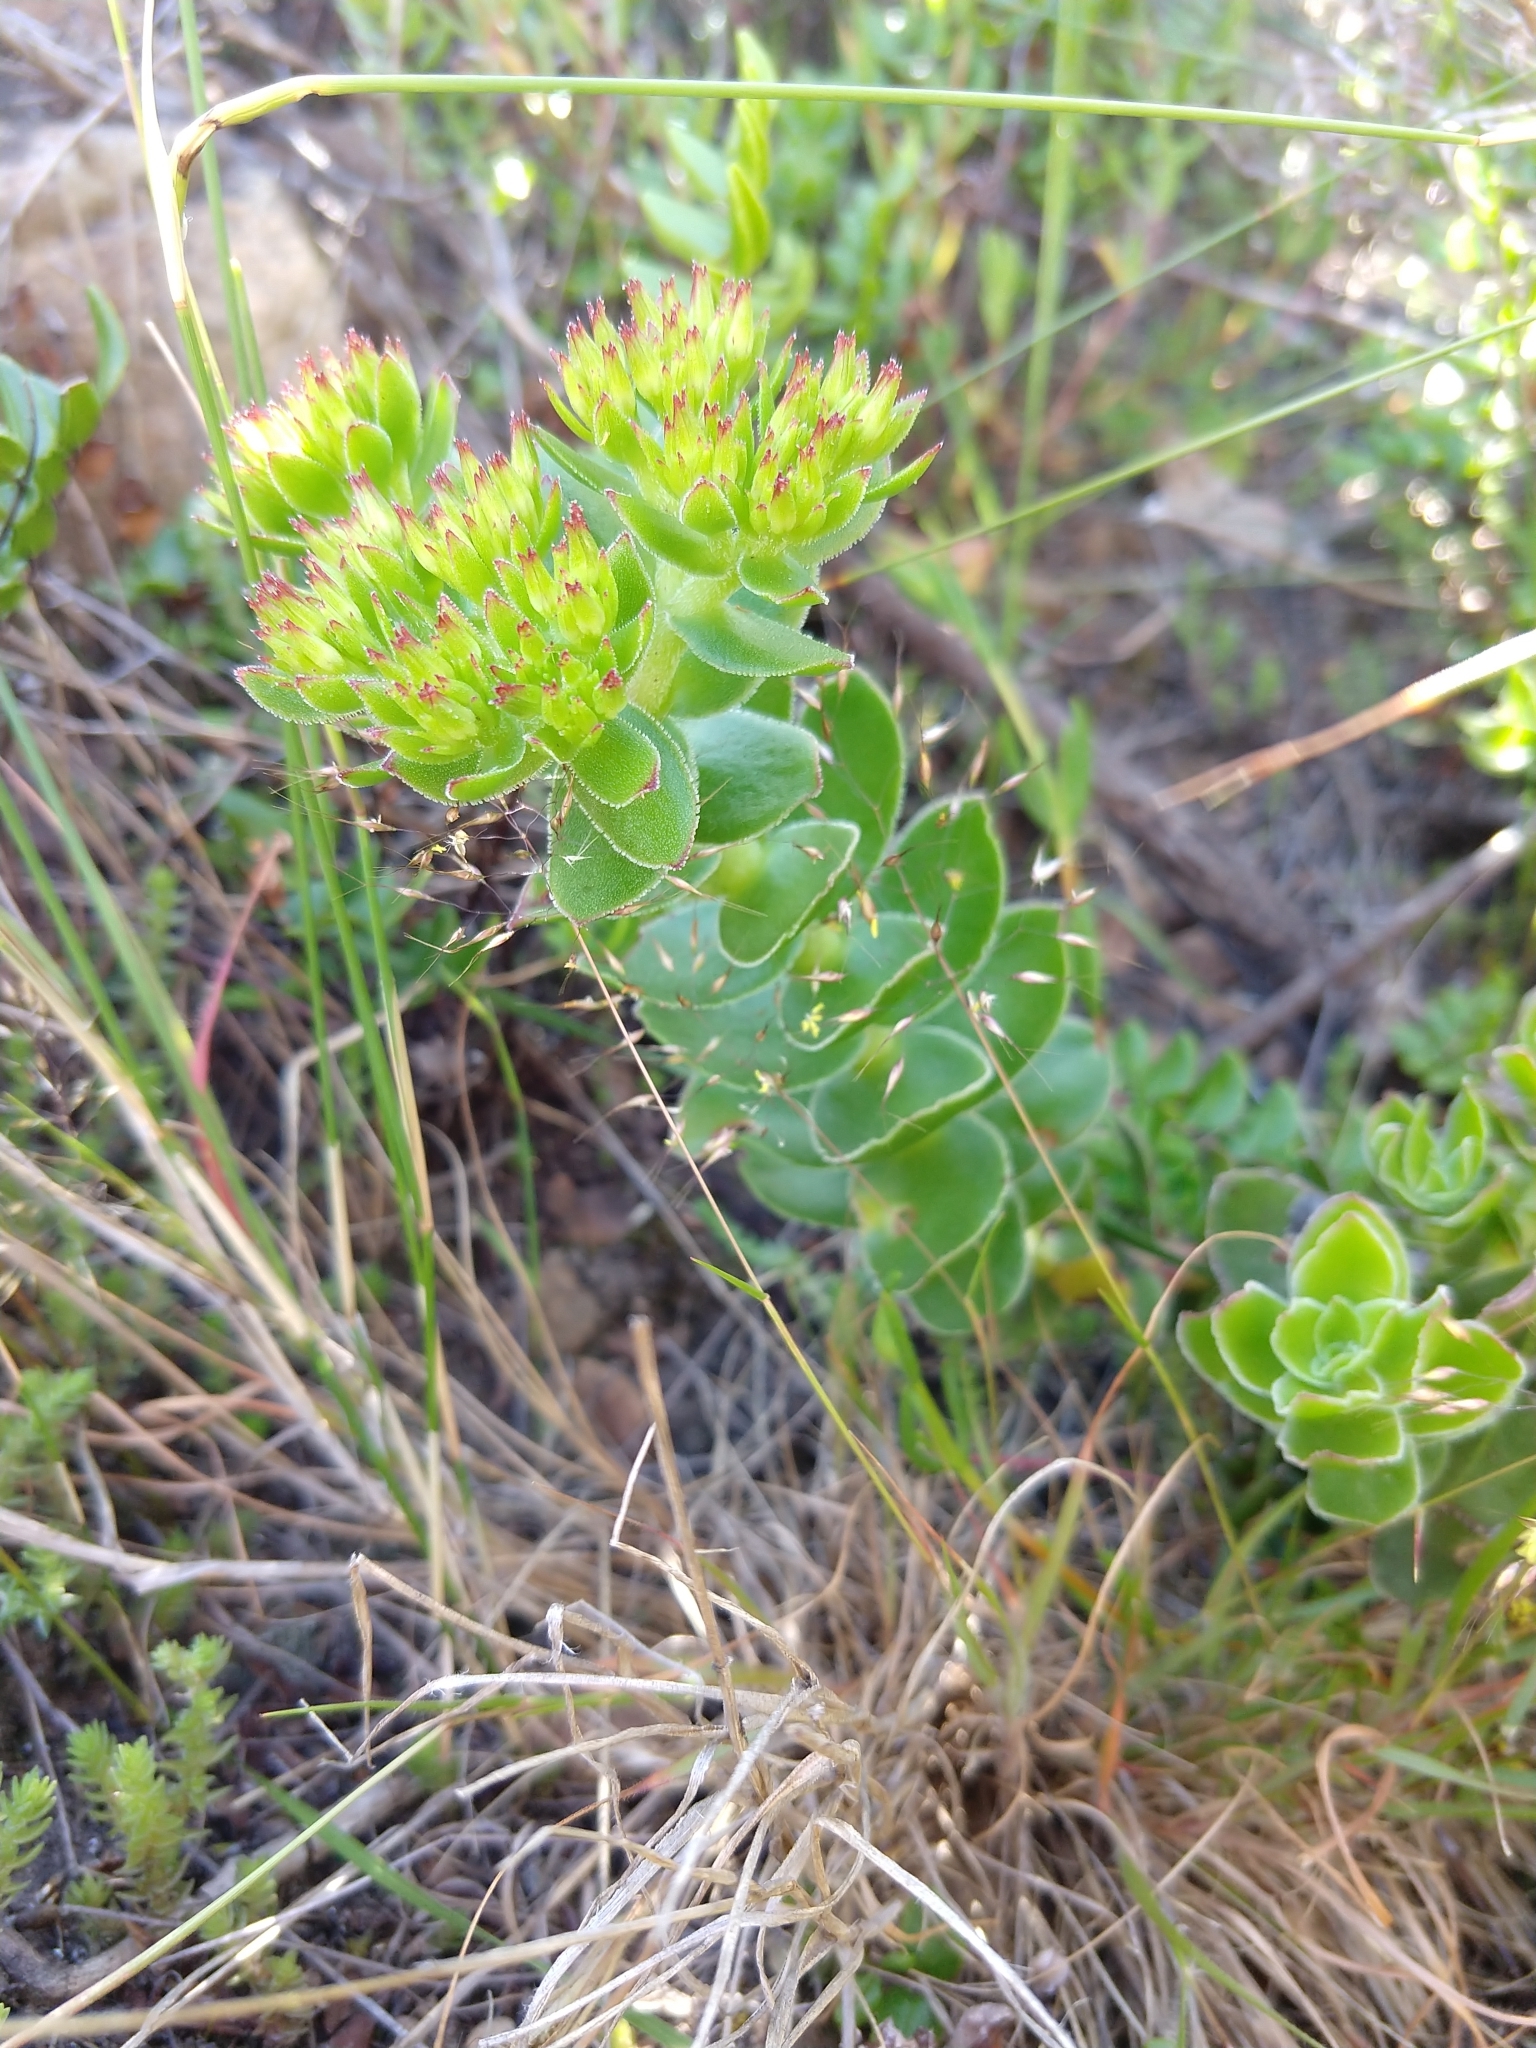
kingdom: Plantae
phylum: Tracheophyta
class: Magnoliopsida
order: Saxifragales
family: Crassulaceae
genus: Crassula
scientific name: Crassula undulata
